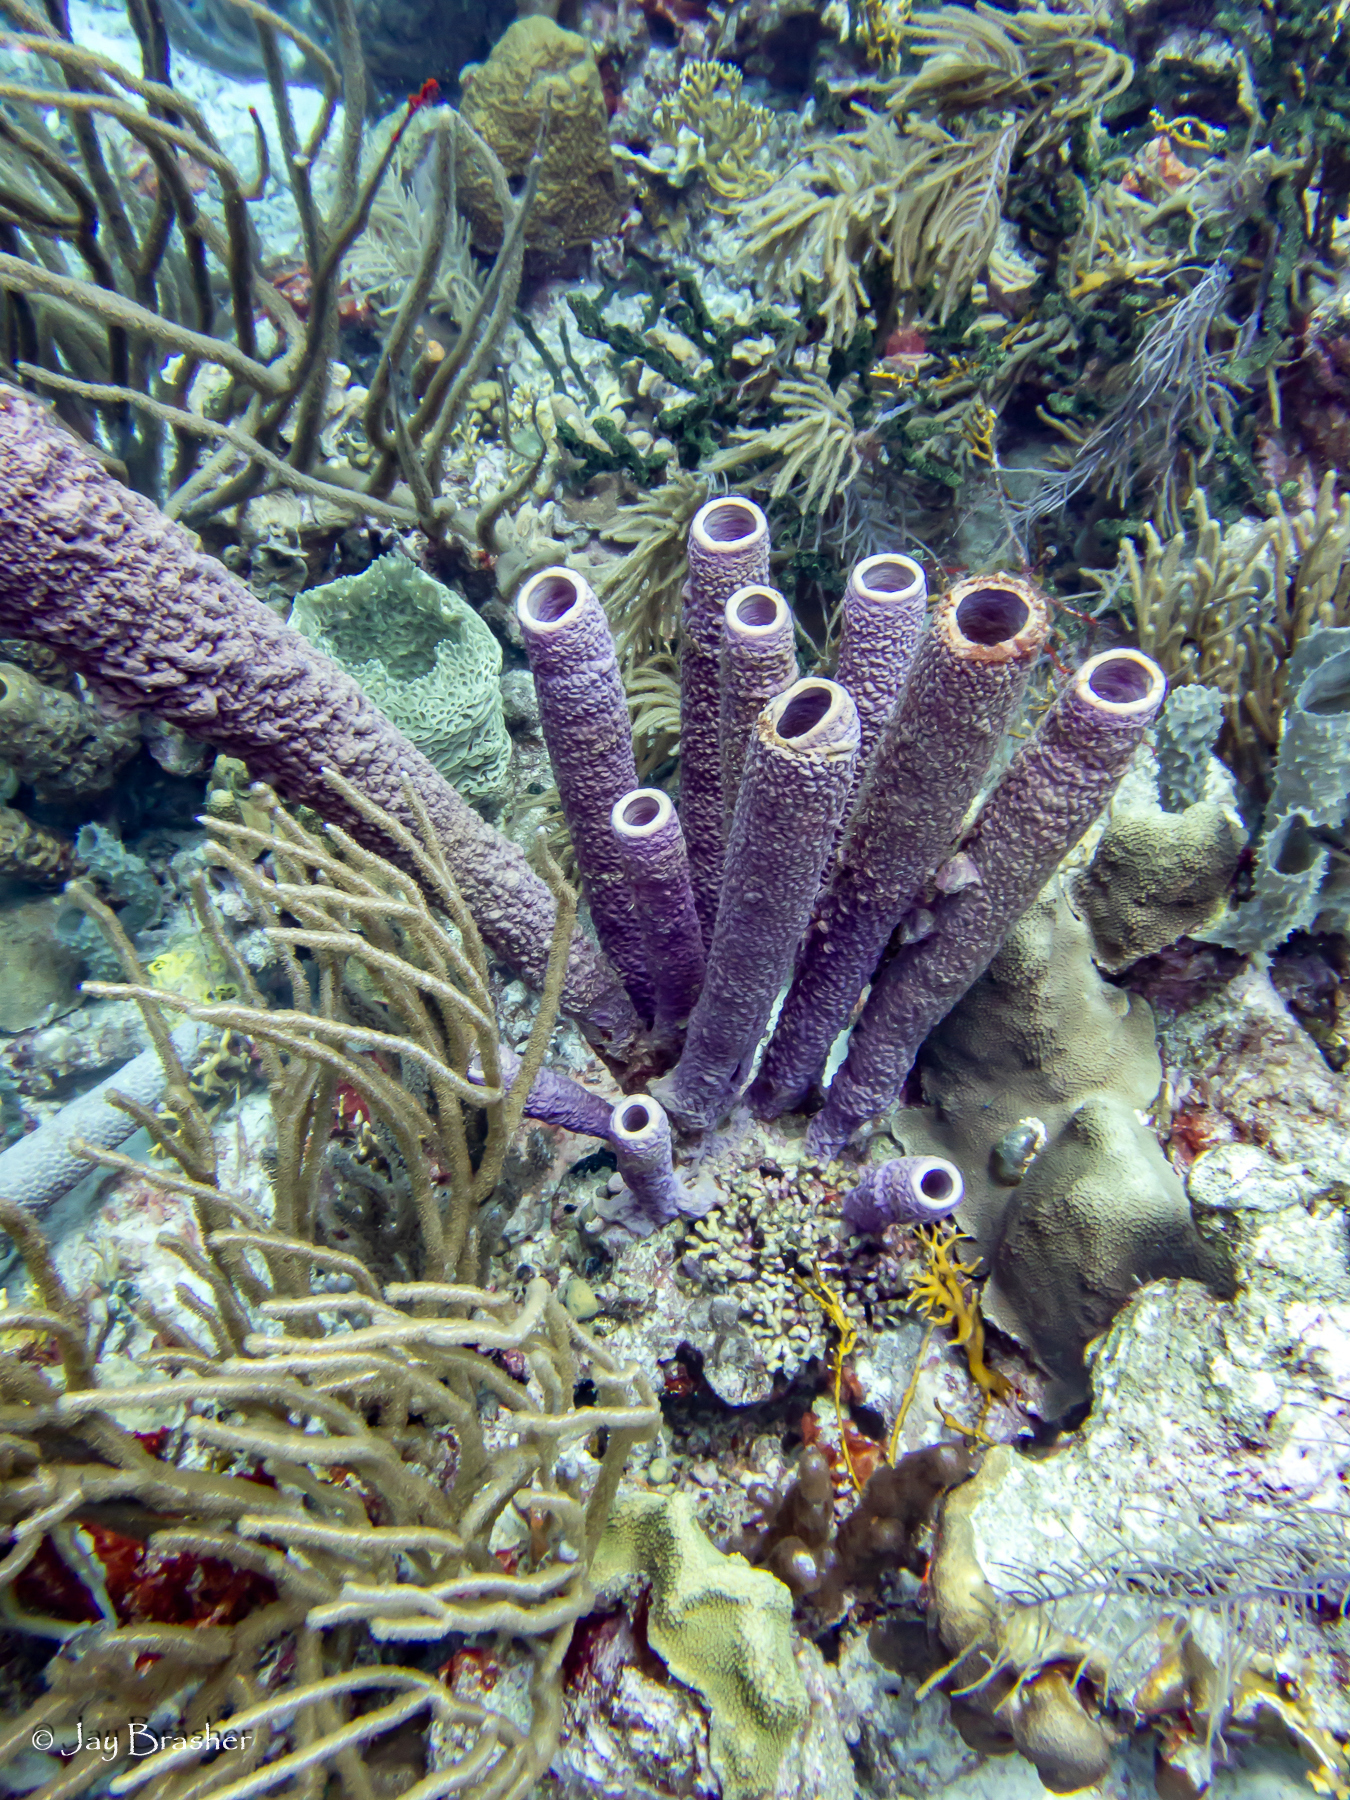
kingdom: Animalia
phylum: Porifera
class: Demospongiae
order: Verongiida
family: Aplysinidae
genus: Aplysina
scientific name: Aplysina archeri
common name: Stove-pipe sponge
